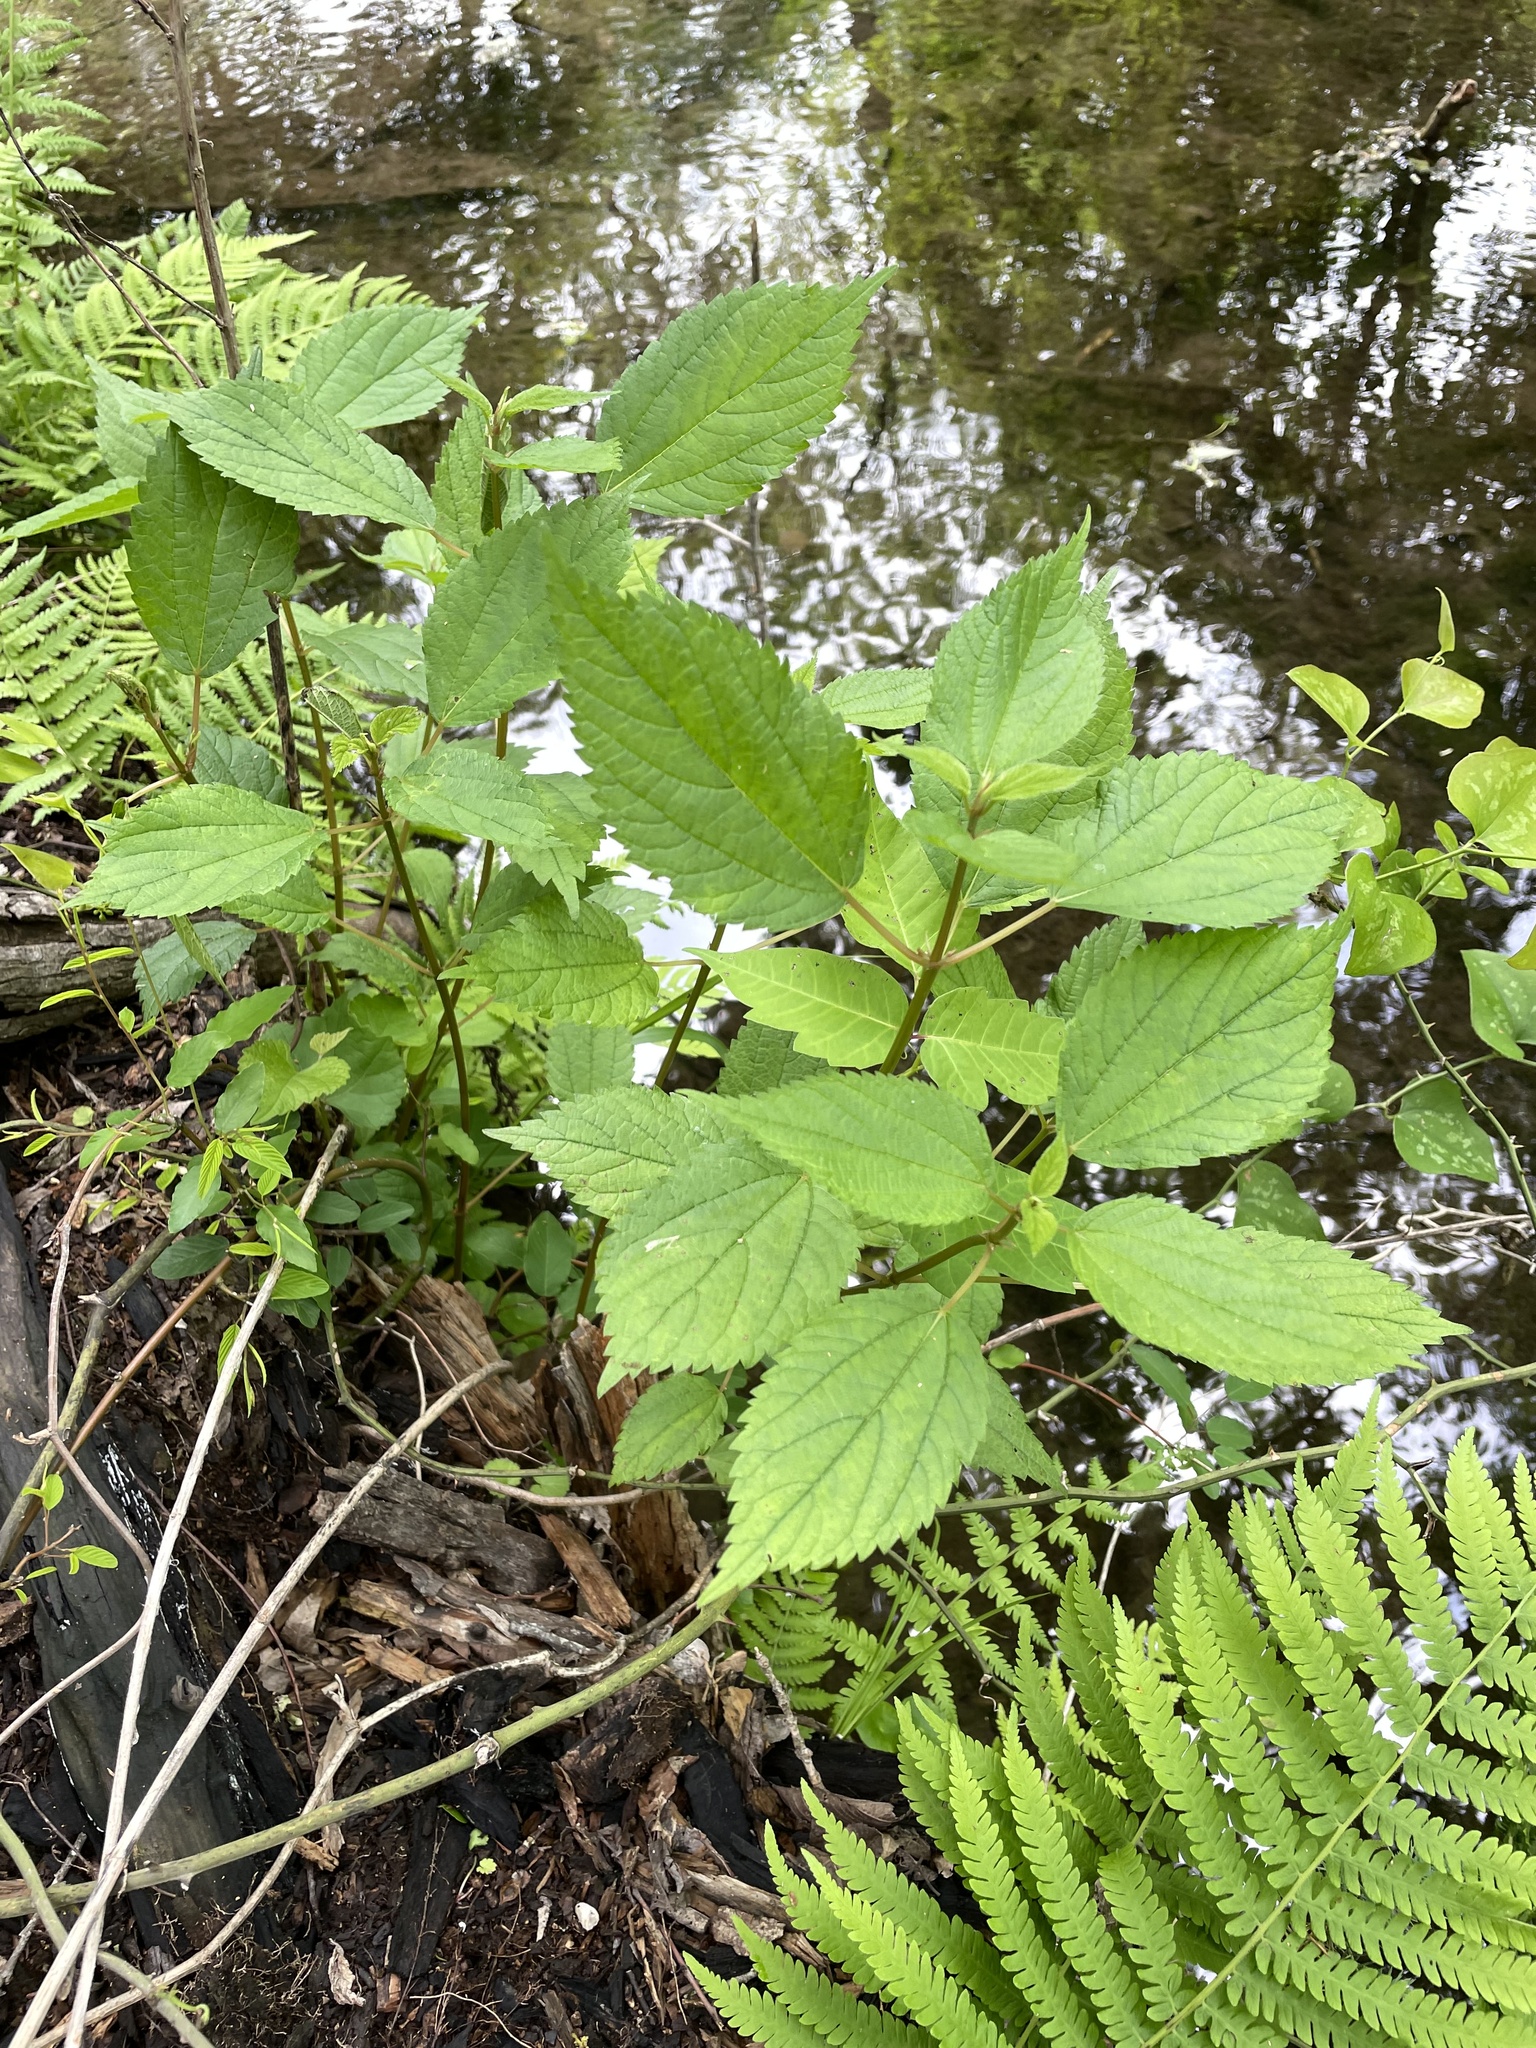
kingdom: Plantae
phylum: Tracheophyta
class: Magnoliopsida
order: Rosales
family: Urticaceae
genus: Boehmeria
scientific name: Boehmeria cylindrica
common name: Bog-hemp
